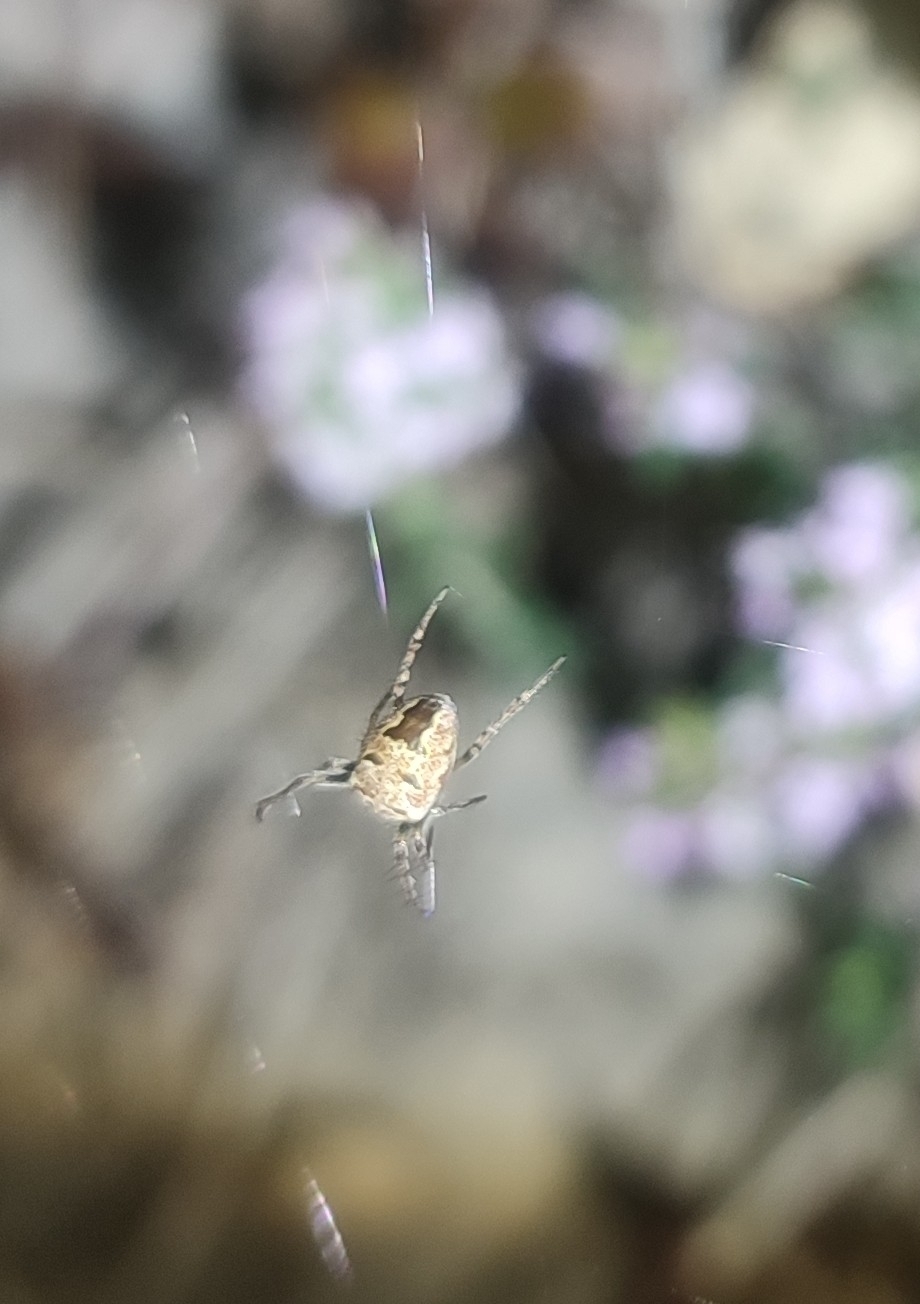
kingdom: Animalia
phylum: Arthropoda
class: Arachnida
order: Araneae
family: Araneidae
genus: Zilla
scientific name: Zilla diodia
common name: Zilla diodia
